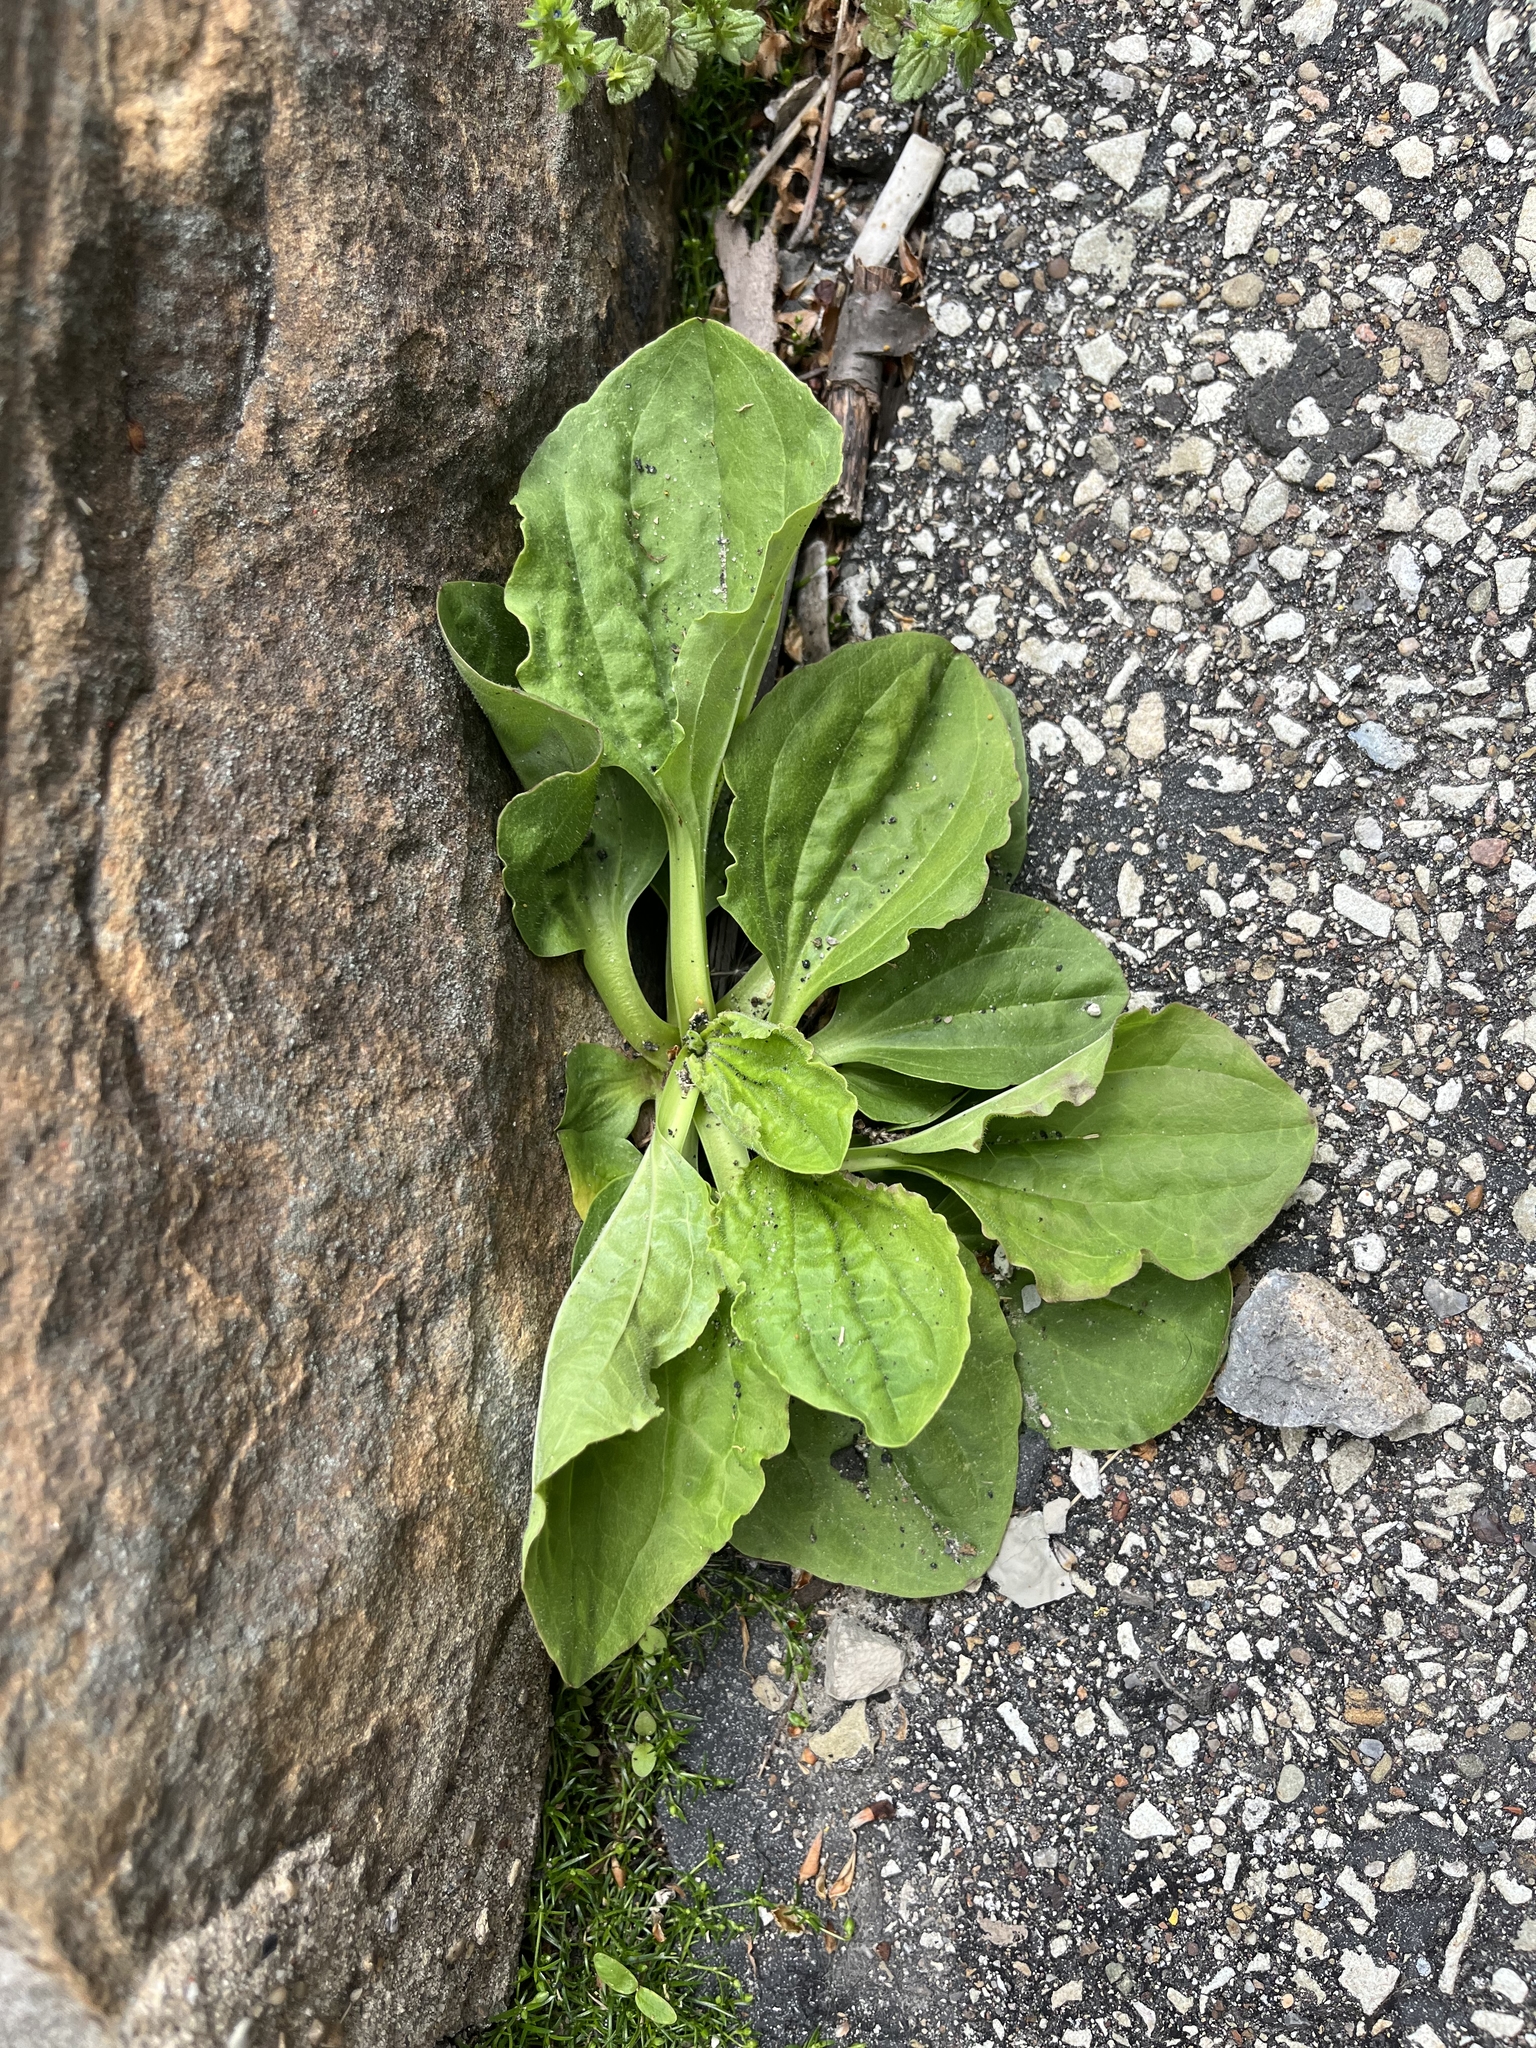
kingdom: Plantae
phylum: Tracheophyta
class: Magnoliopsida
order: Lamiales
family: Plantaginaceae
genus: Plantago
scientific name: Plantago major
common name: Common plantain
